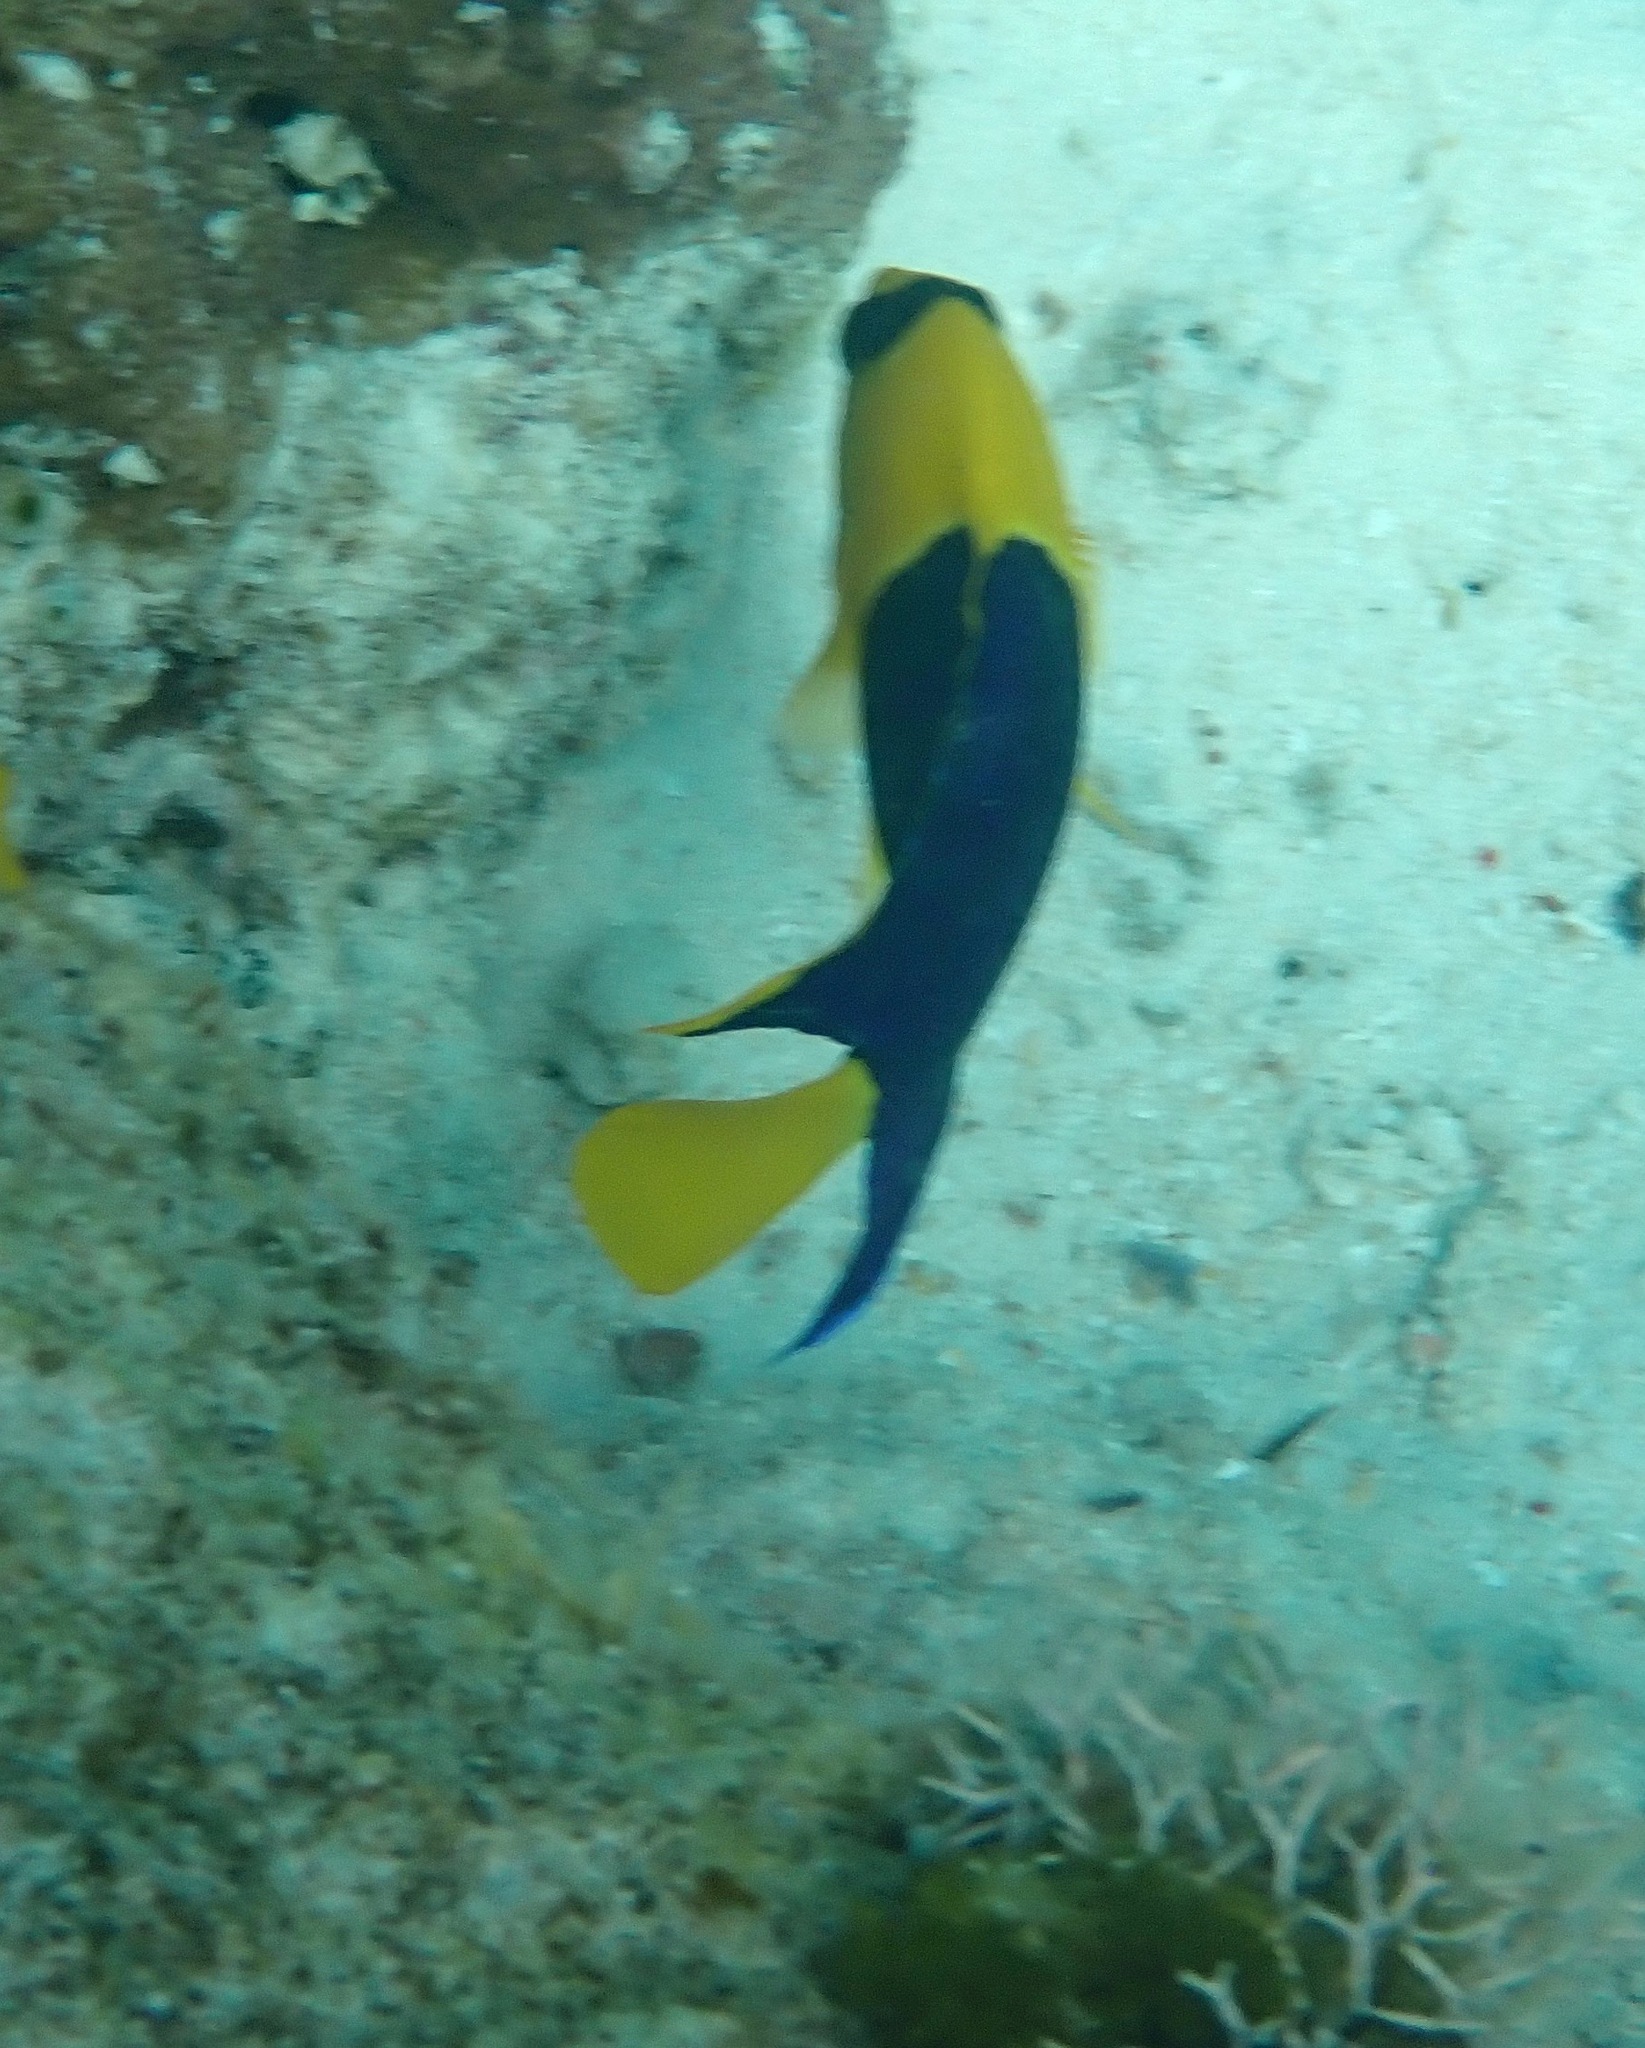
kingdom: Animalia
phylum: Chordata
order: Perciformes
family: Pomacanthidae
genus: Centropyge
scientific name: Centropyge bicolor
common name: Bicolor angelfish
